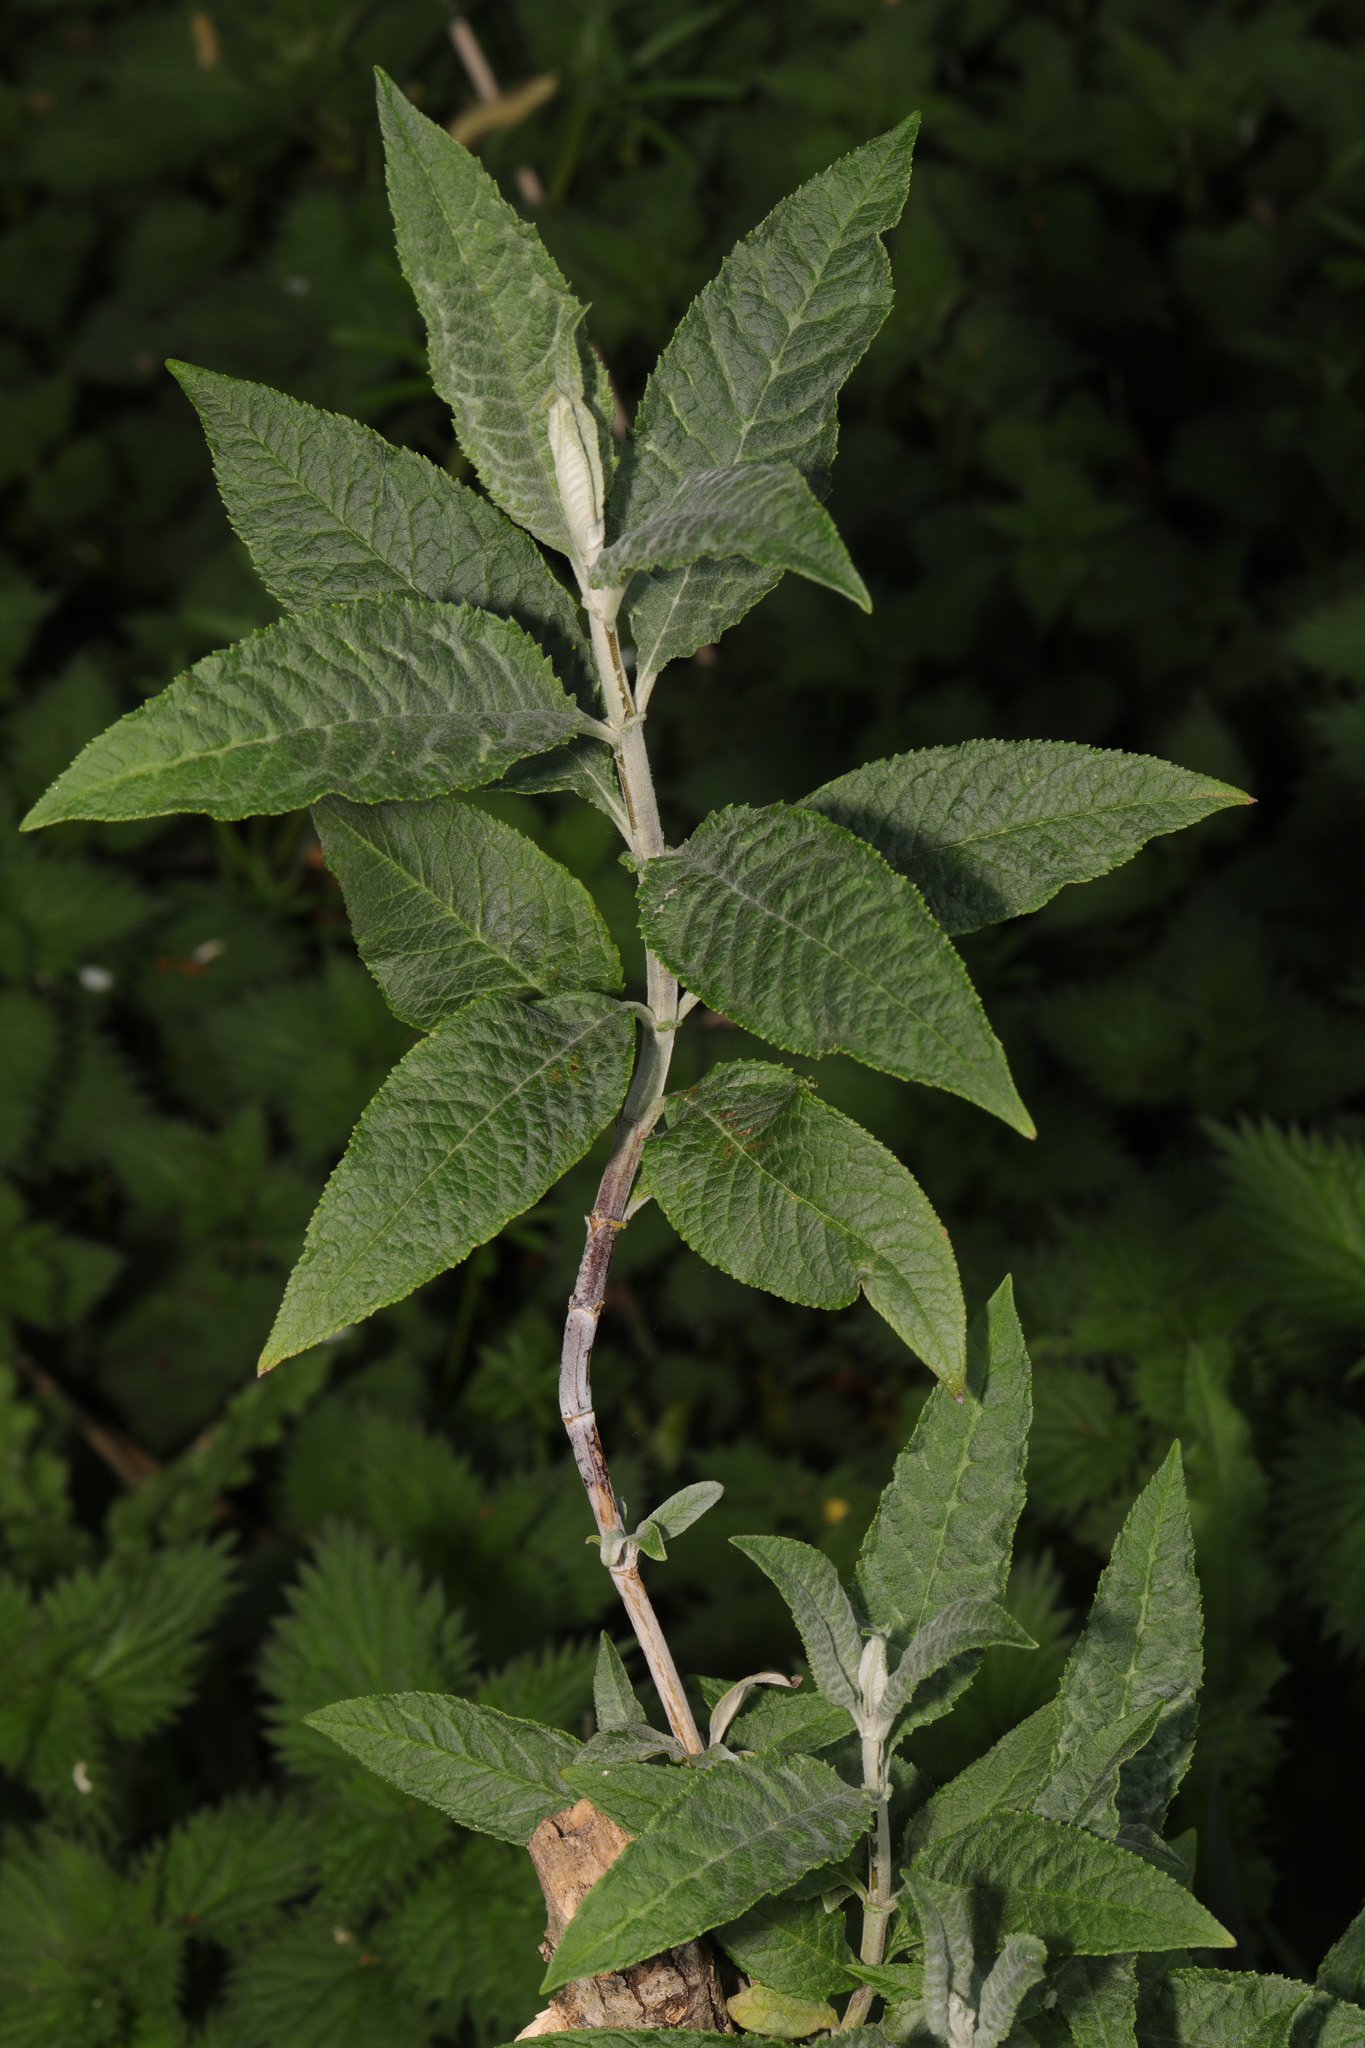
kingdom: Plantae
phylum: Tracheophyta
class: Magnoliopsida
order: Lamiales
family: Scrophulariaceae
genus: Buddleja
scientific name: Buddleja davidii
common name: Butterfly-bush
